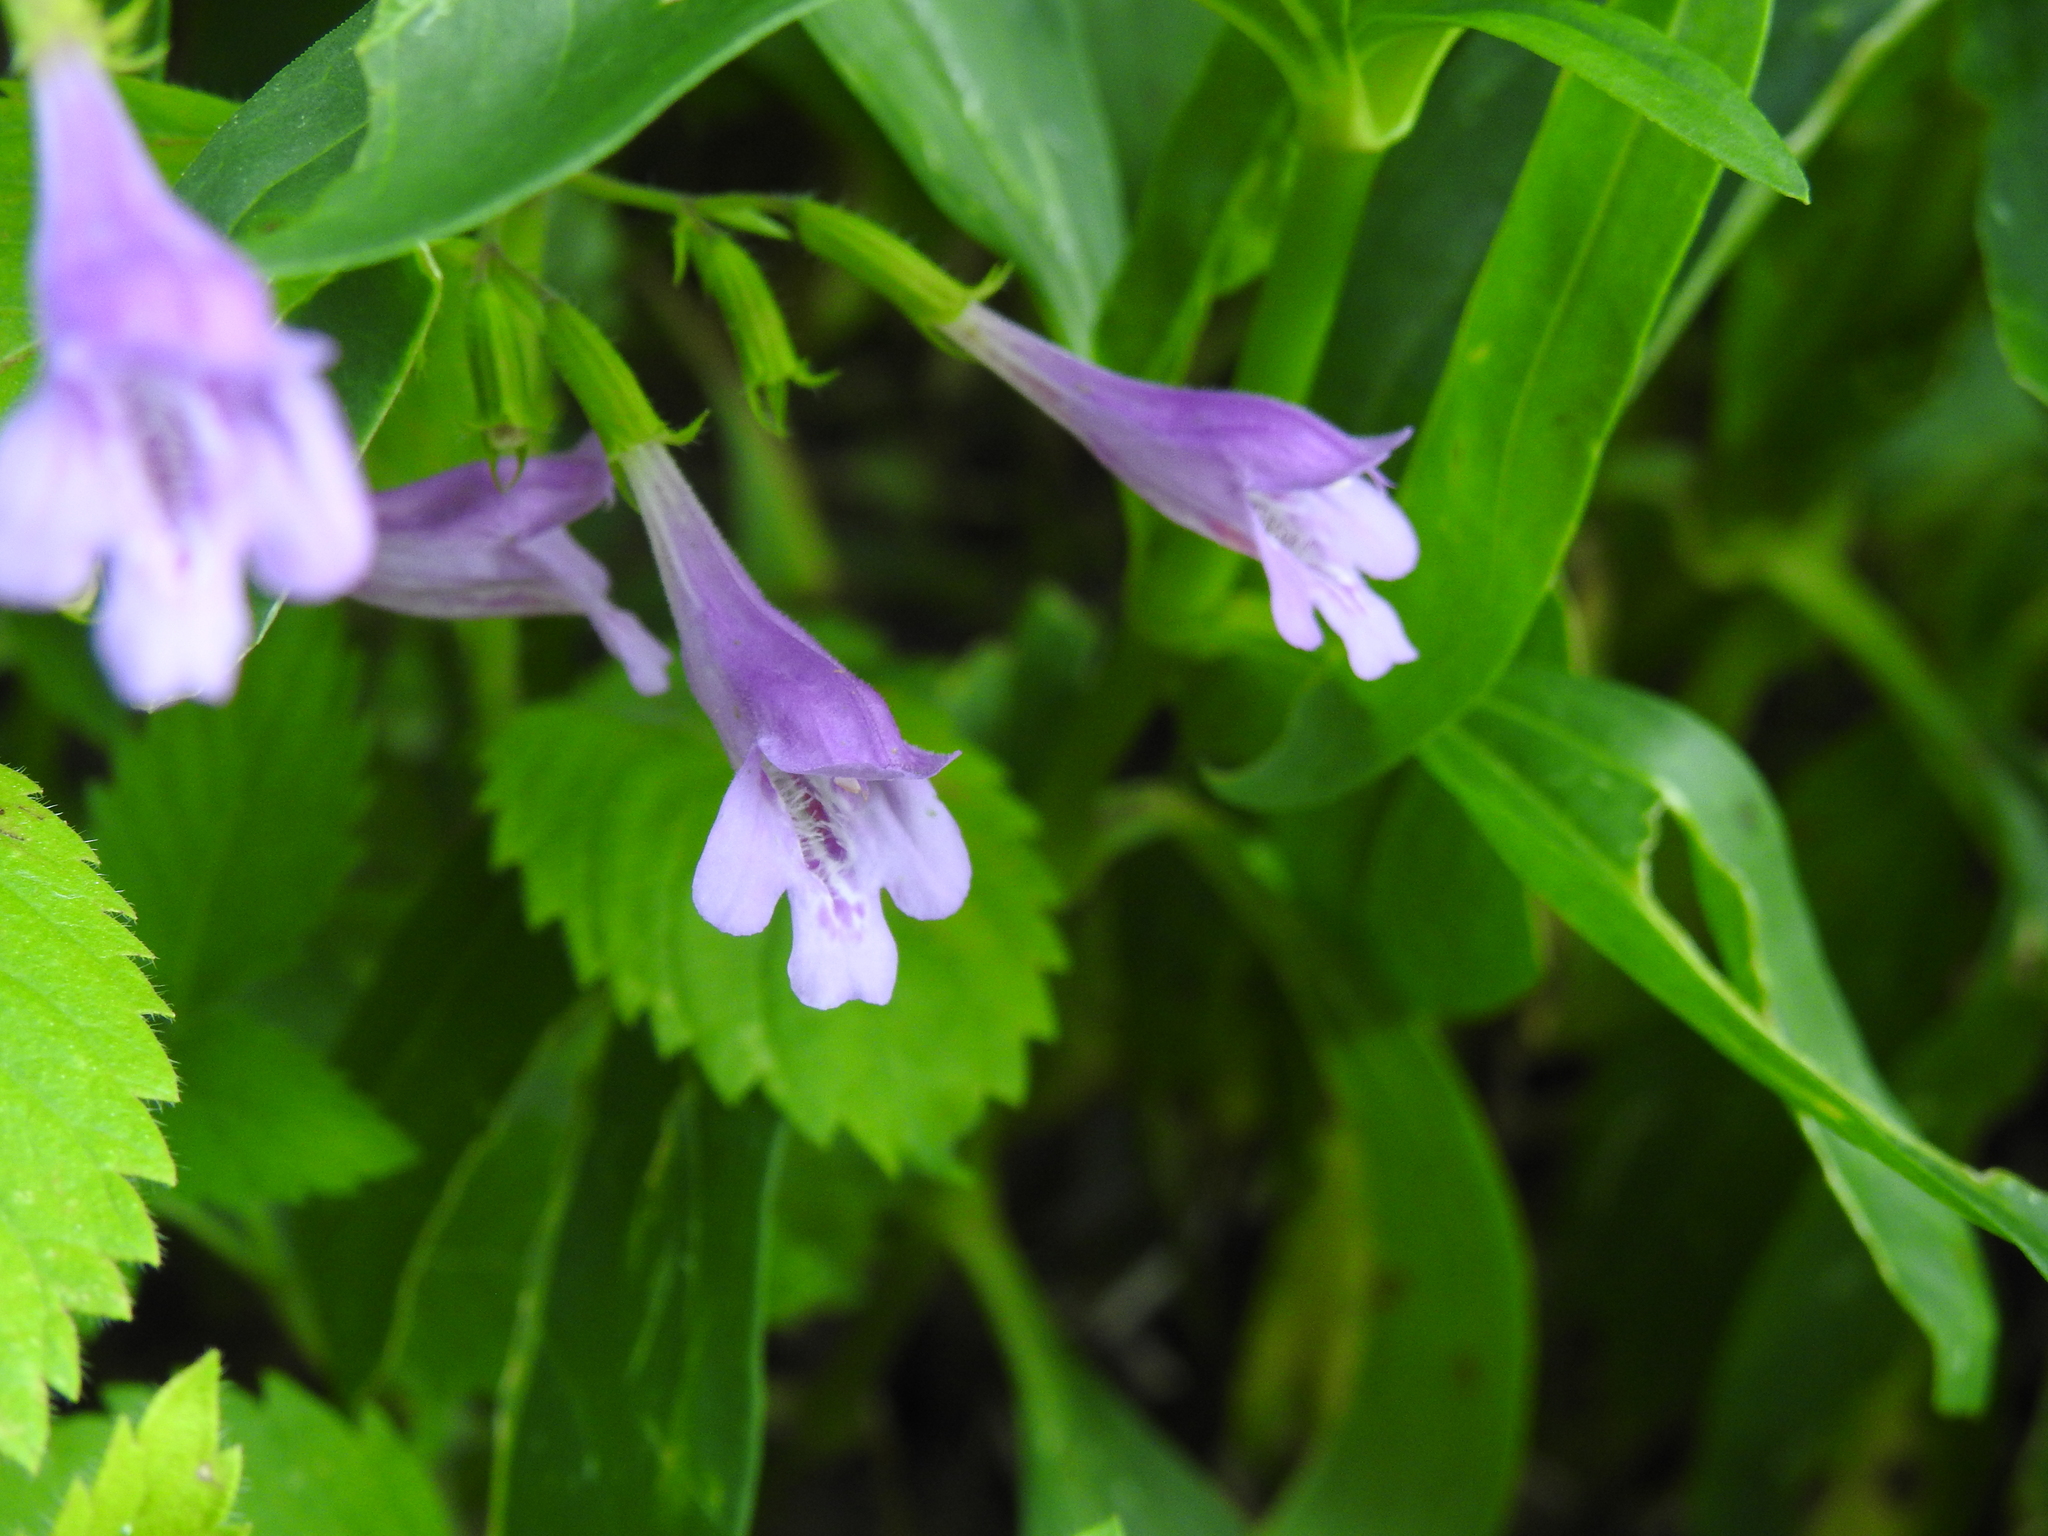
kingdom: Plantae
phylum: Tracheophyta
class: Magnoliopsida
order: Lamiales
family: Lamiaceae
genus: Clinopodium
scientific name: Clinopodium grandiflorum
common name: Greater calamint
